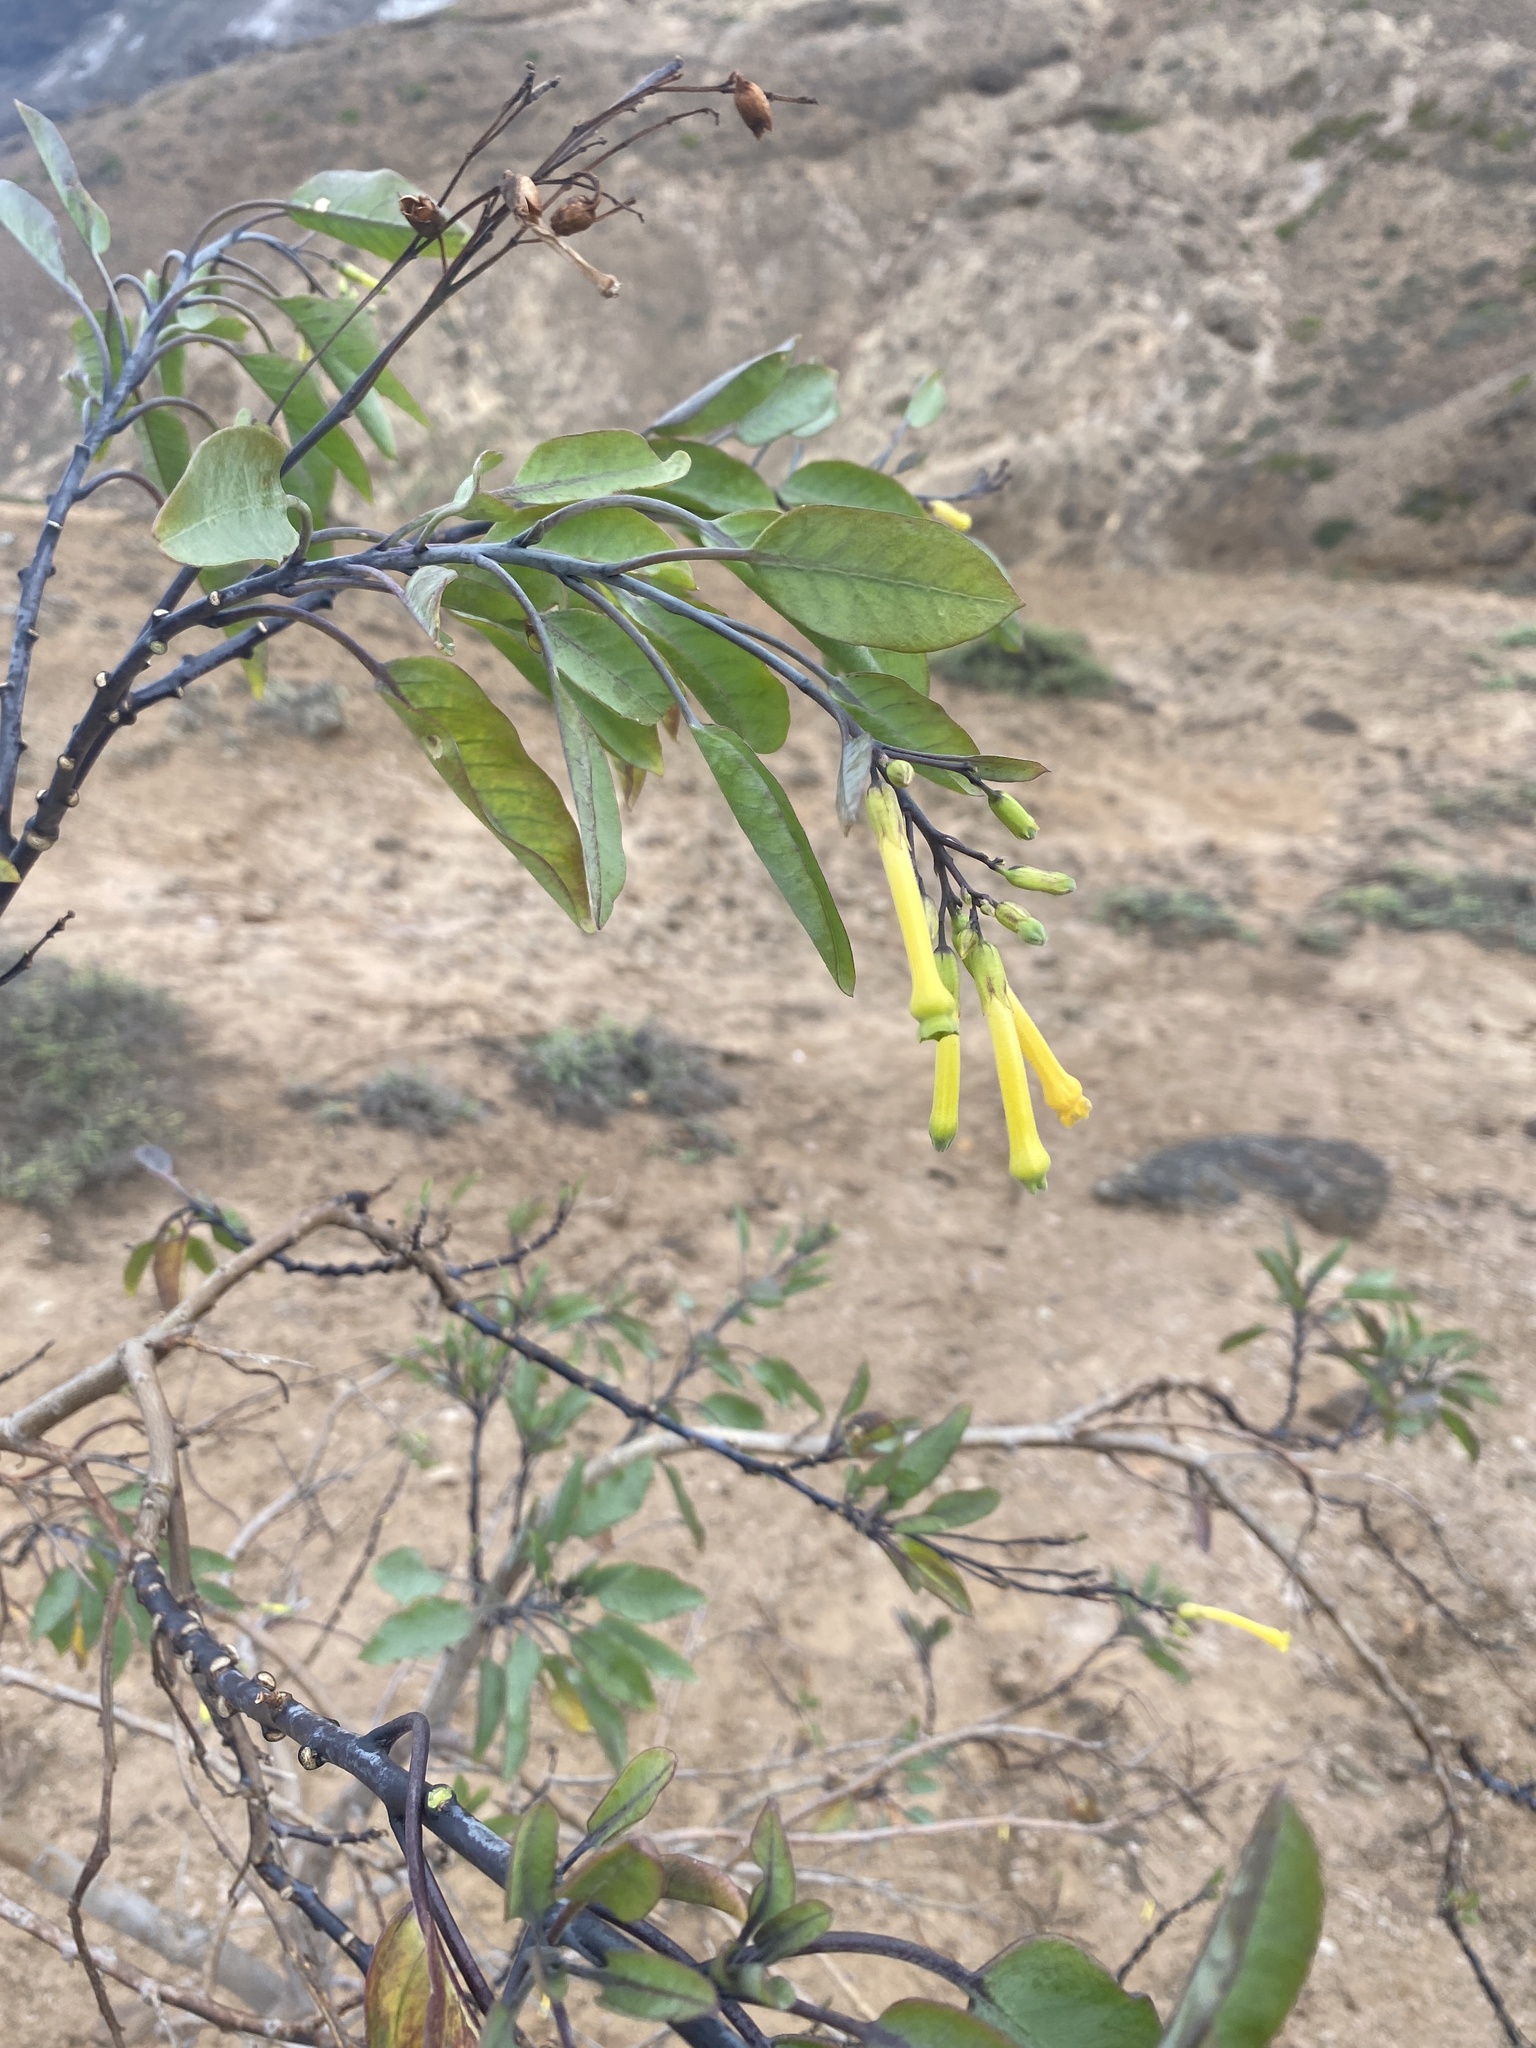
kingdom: Plantae
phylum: Tracheophyta
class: Magnoliopsida
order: Solanales
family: Solanaceae
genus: Nicotiana
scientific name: Nicotiana glauca
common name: Tree tobacco
